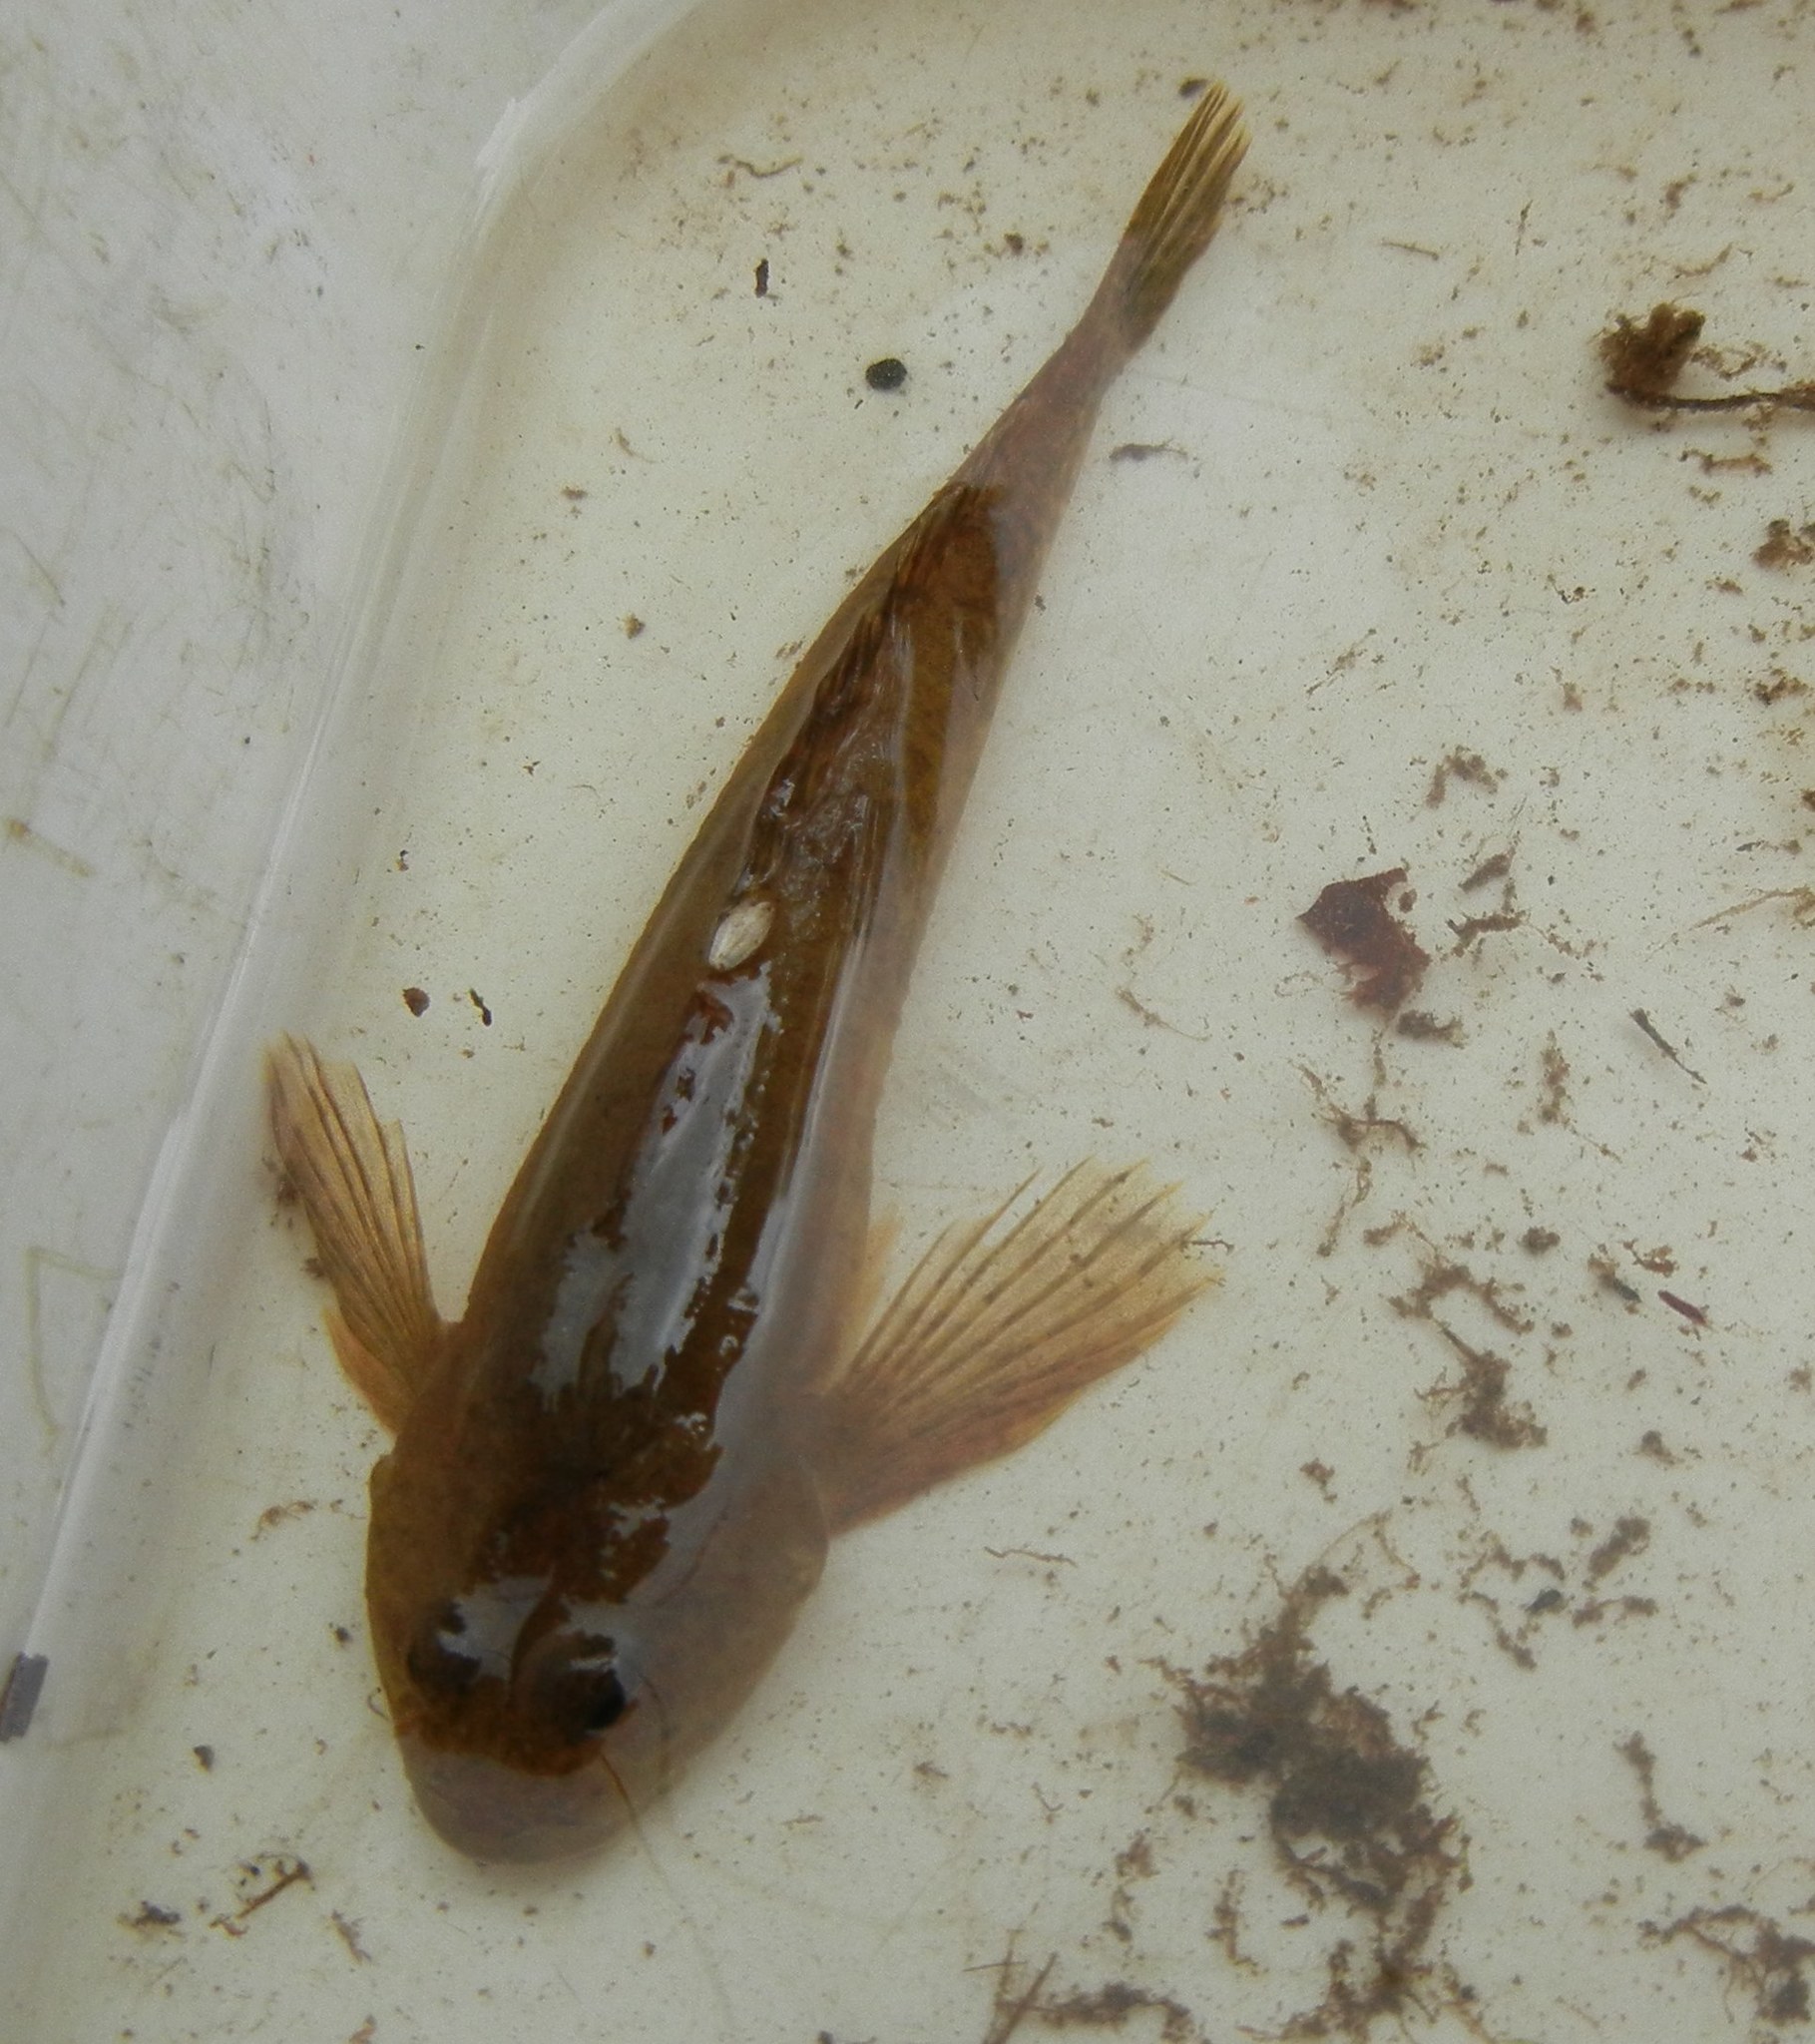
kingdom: Animalia
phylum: Chordata
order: Scorpaeniformes
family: Cottidae
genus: Cottus
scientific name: Cottus perifretum
